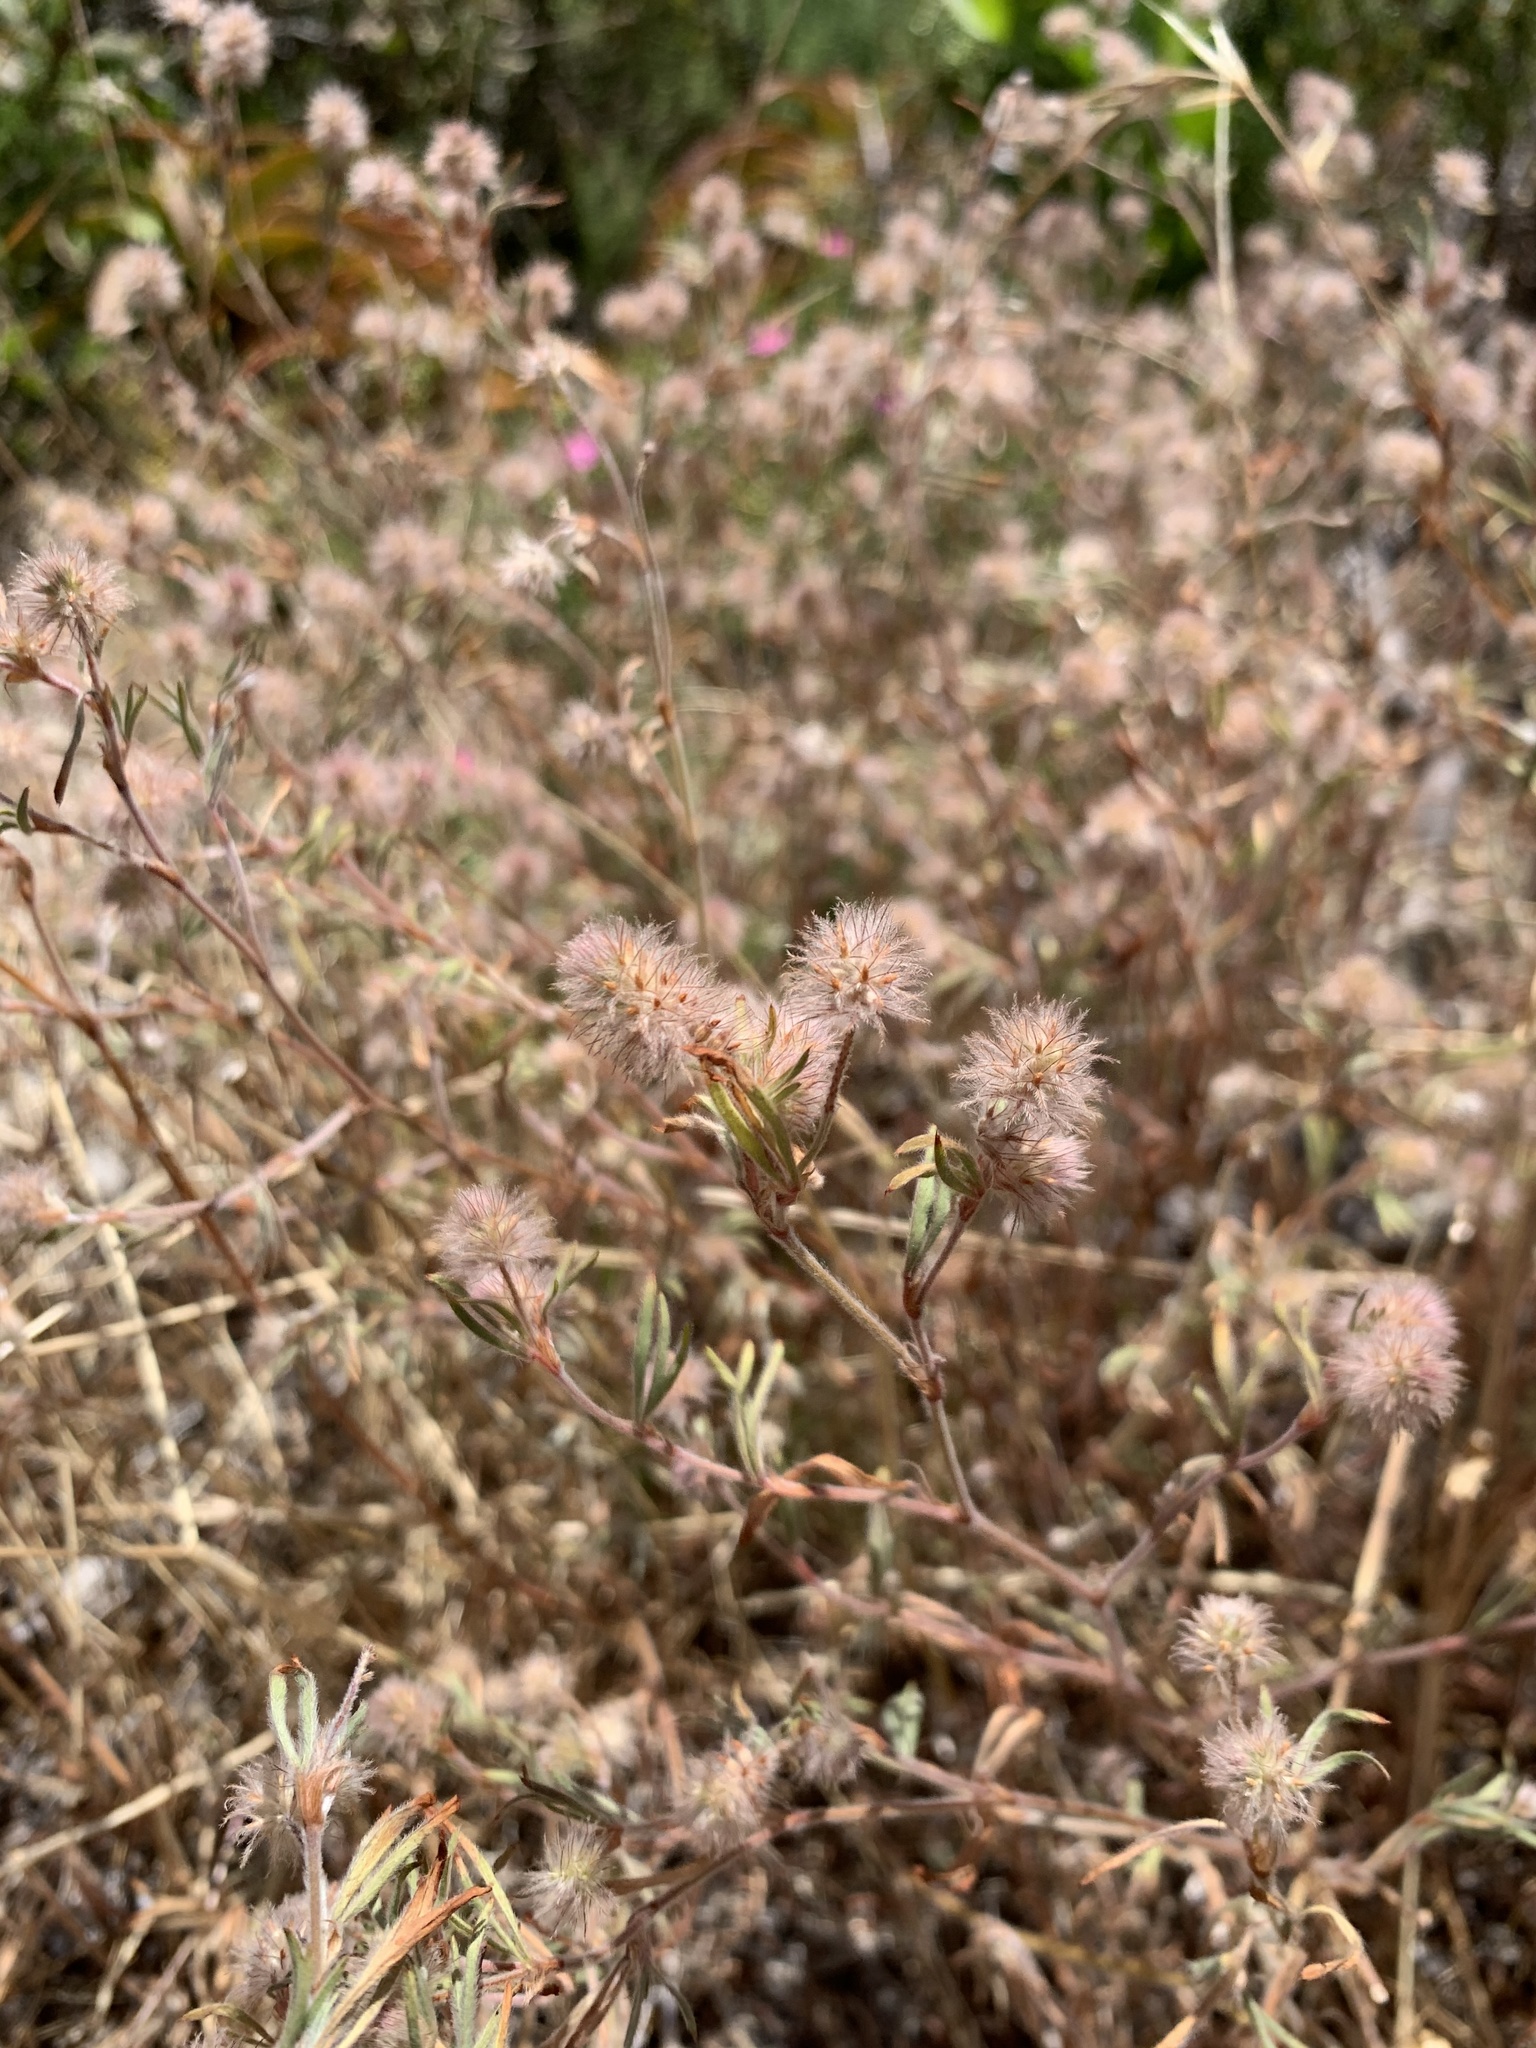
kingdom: Plantae
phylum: Tracheophyta
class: Magnoliopsida
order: Fabales
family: Fabaceae
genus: Trifolium
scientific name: Trifolium arvense
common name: Hare's-foot clover
